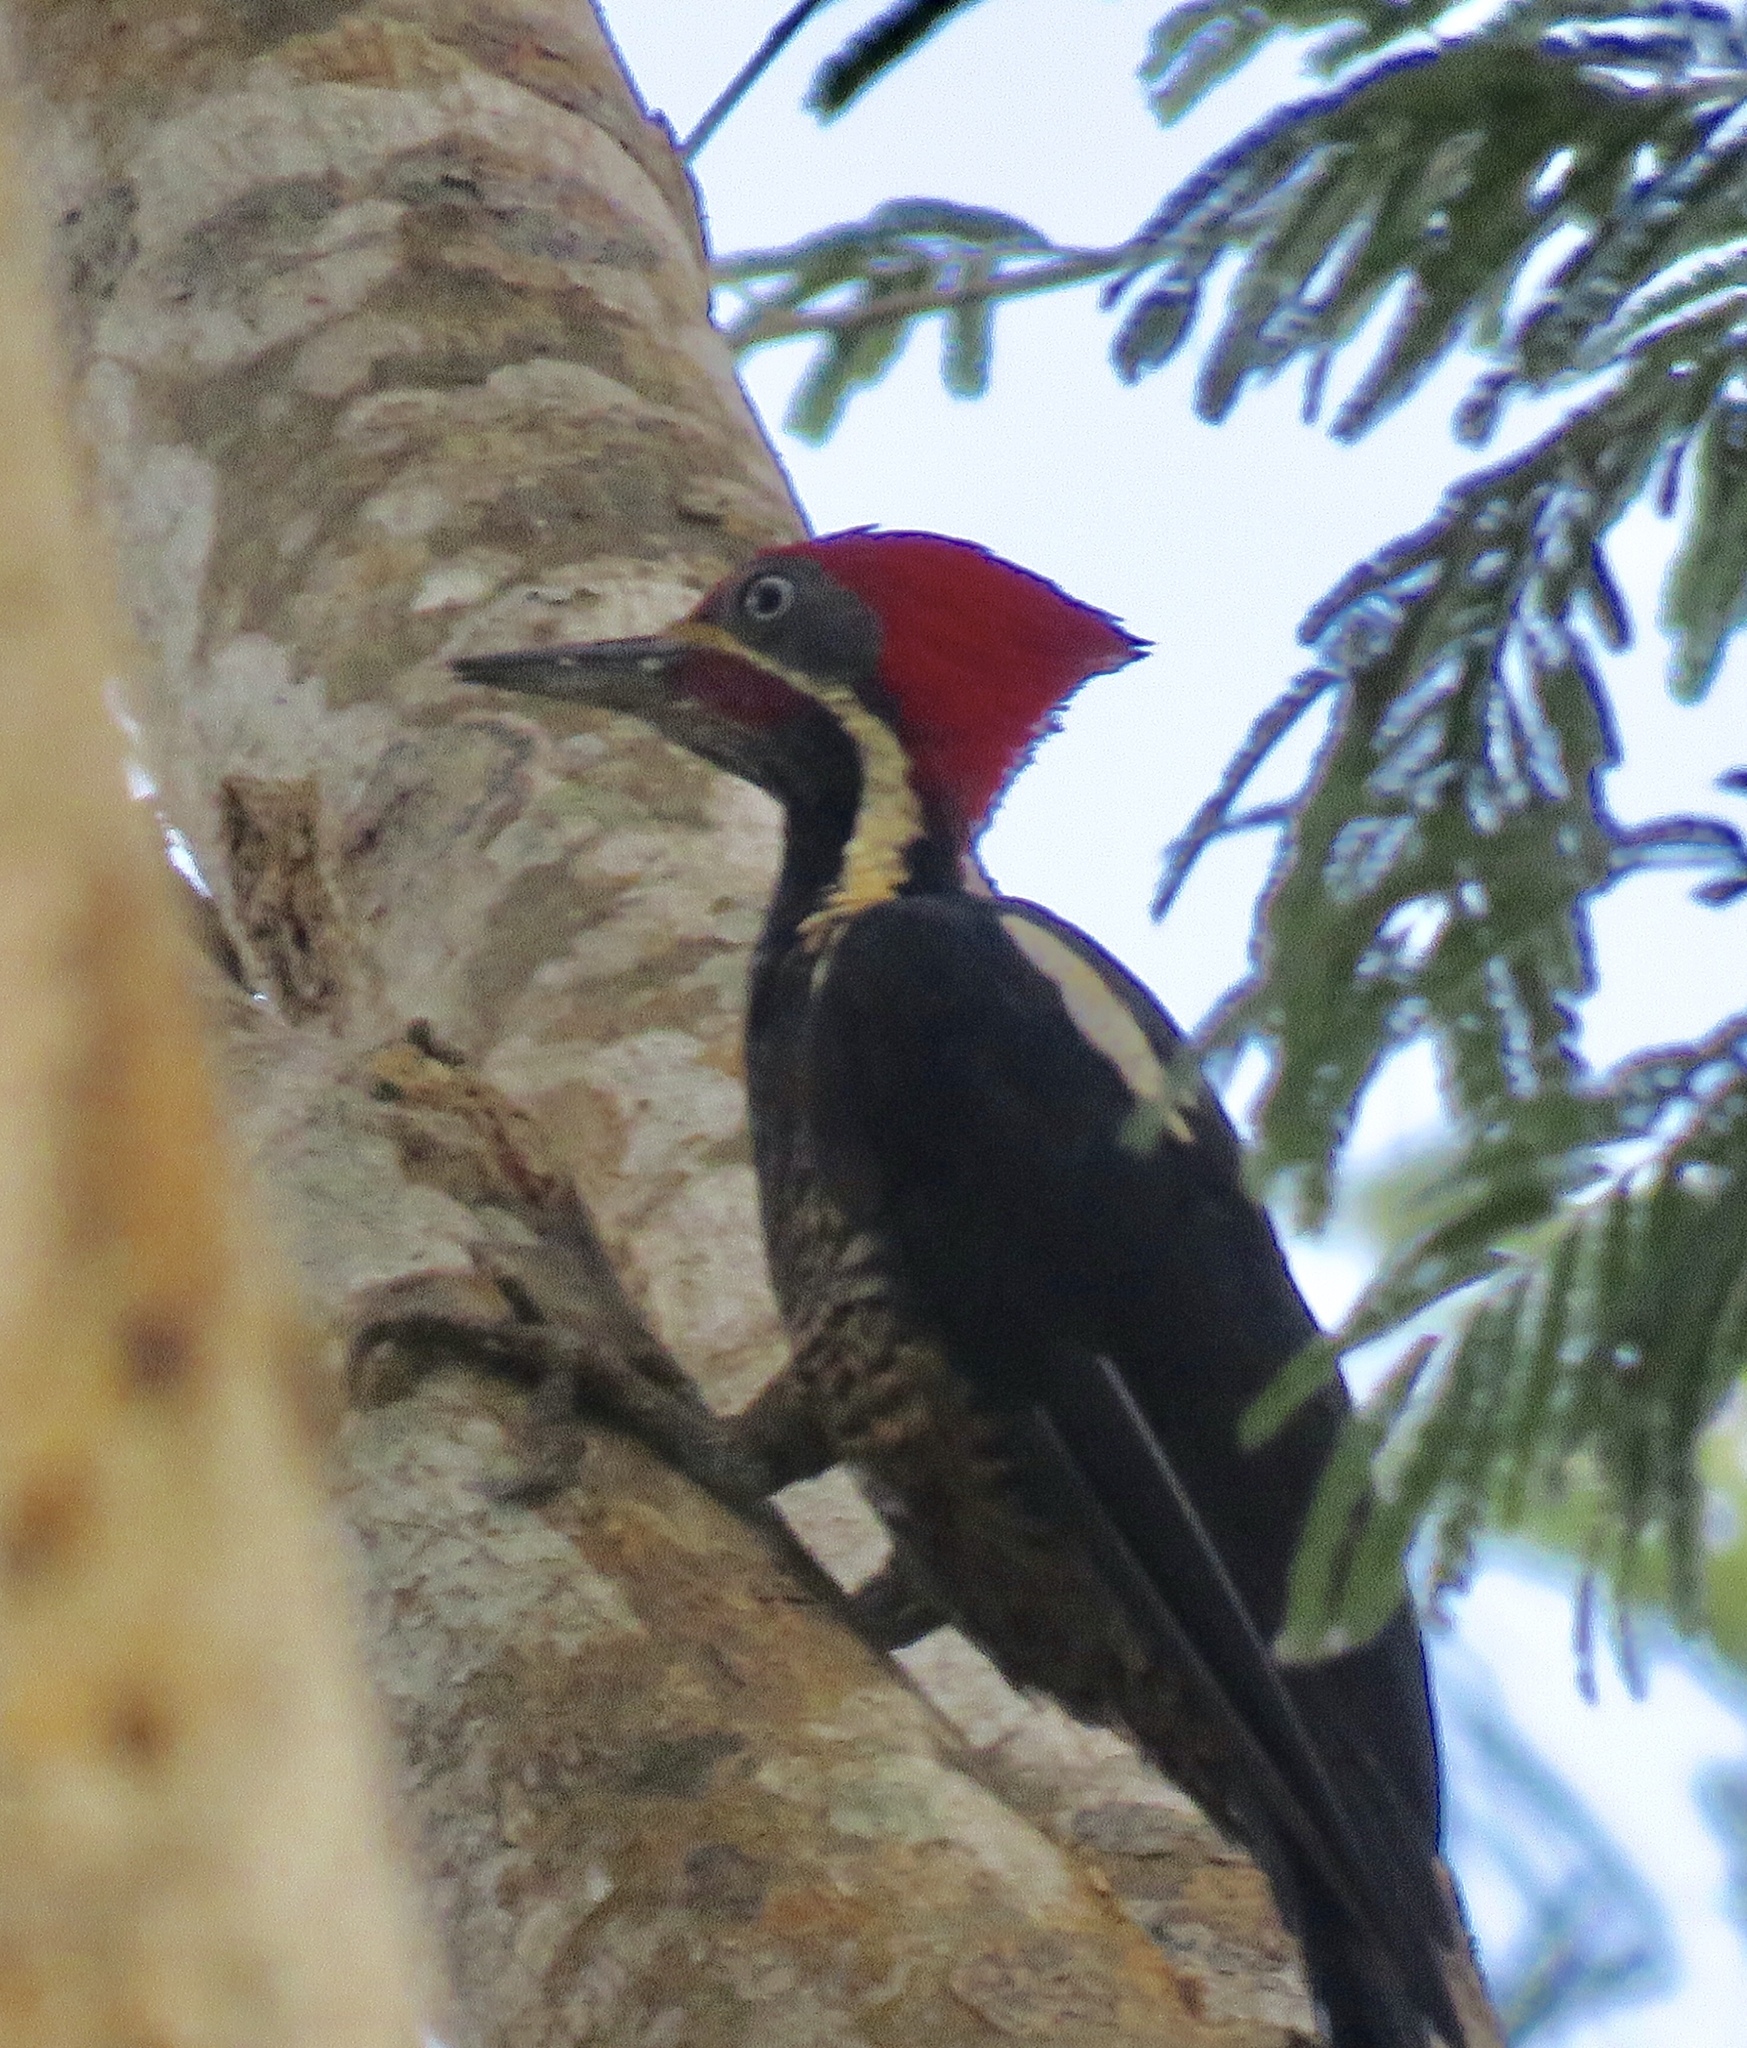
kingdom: Animalia
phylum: Chordata
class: Aves
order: Piciformes
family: Picidae
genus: Dryocopus
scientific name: Dryocopus lineatus
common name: Lineated woodpecker
